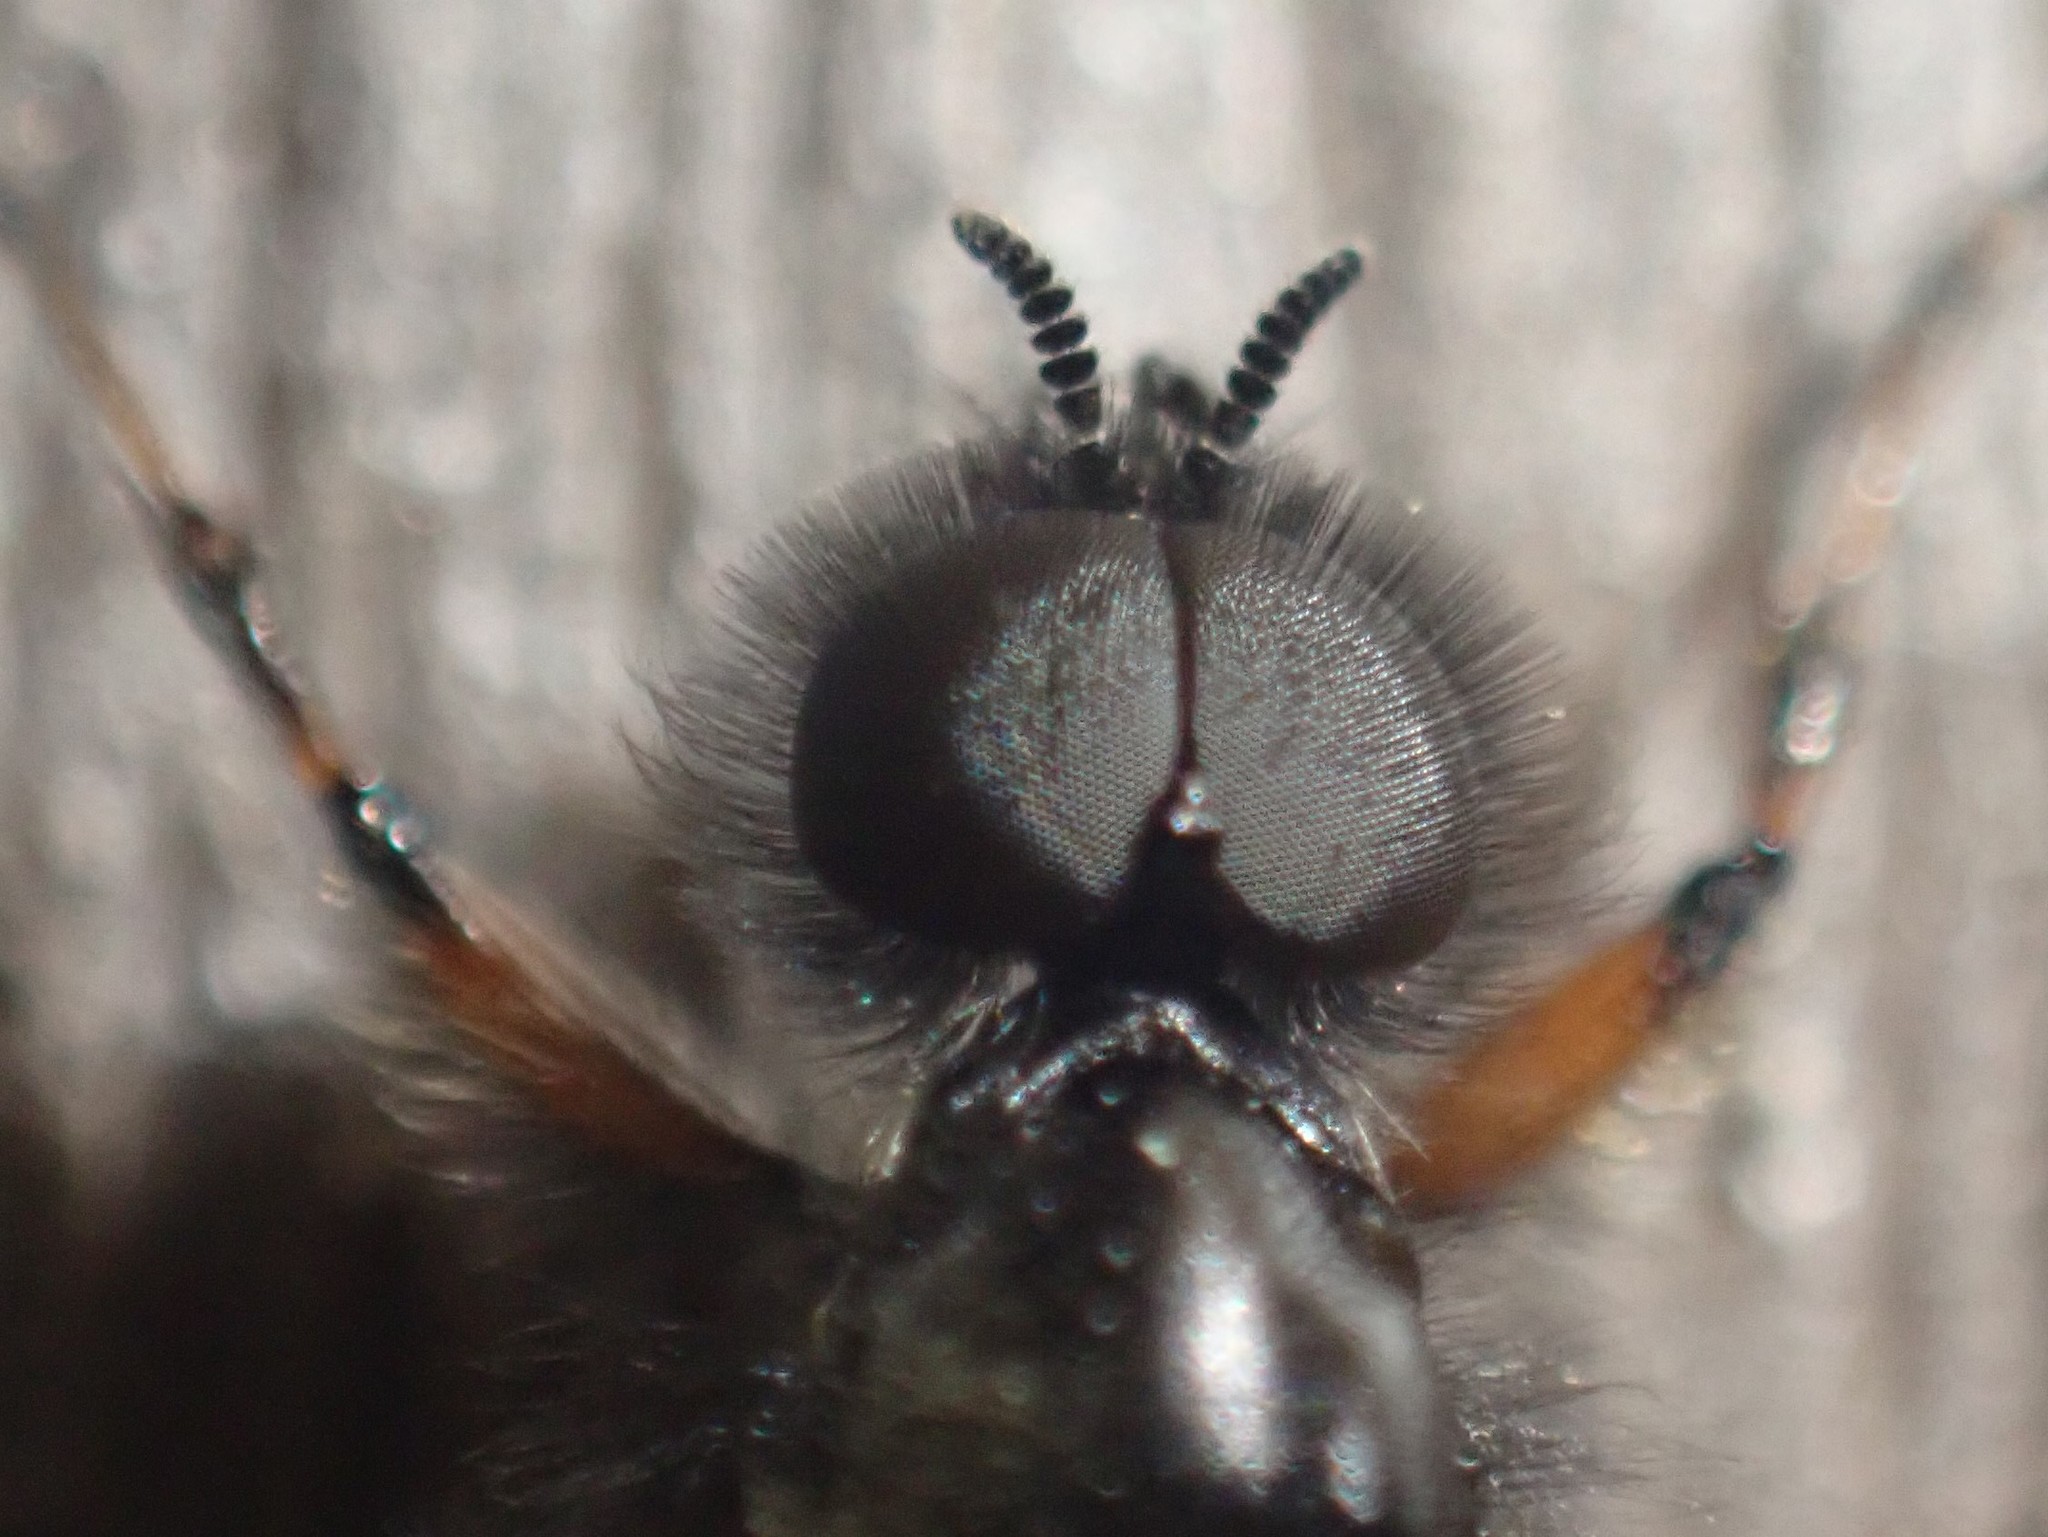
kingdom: Animalia
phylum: Arthropoda
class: Insecta
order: Diptera
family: Bibionidae
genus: Bibio
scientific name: Bibio
